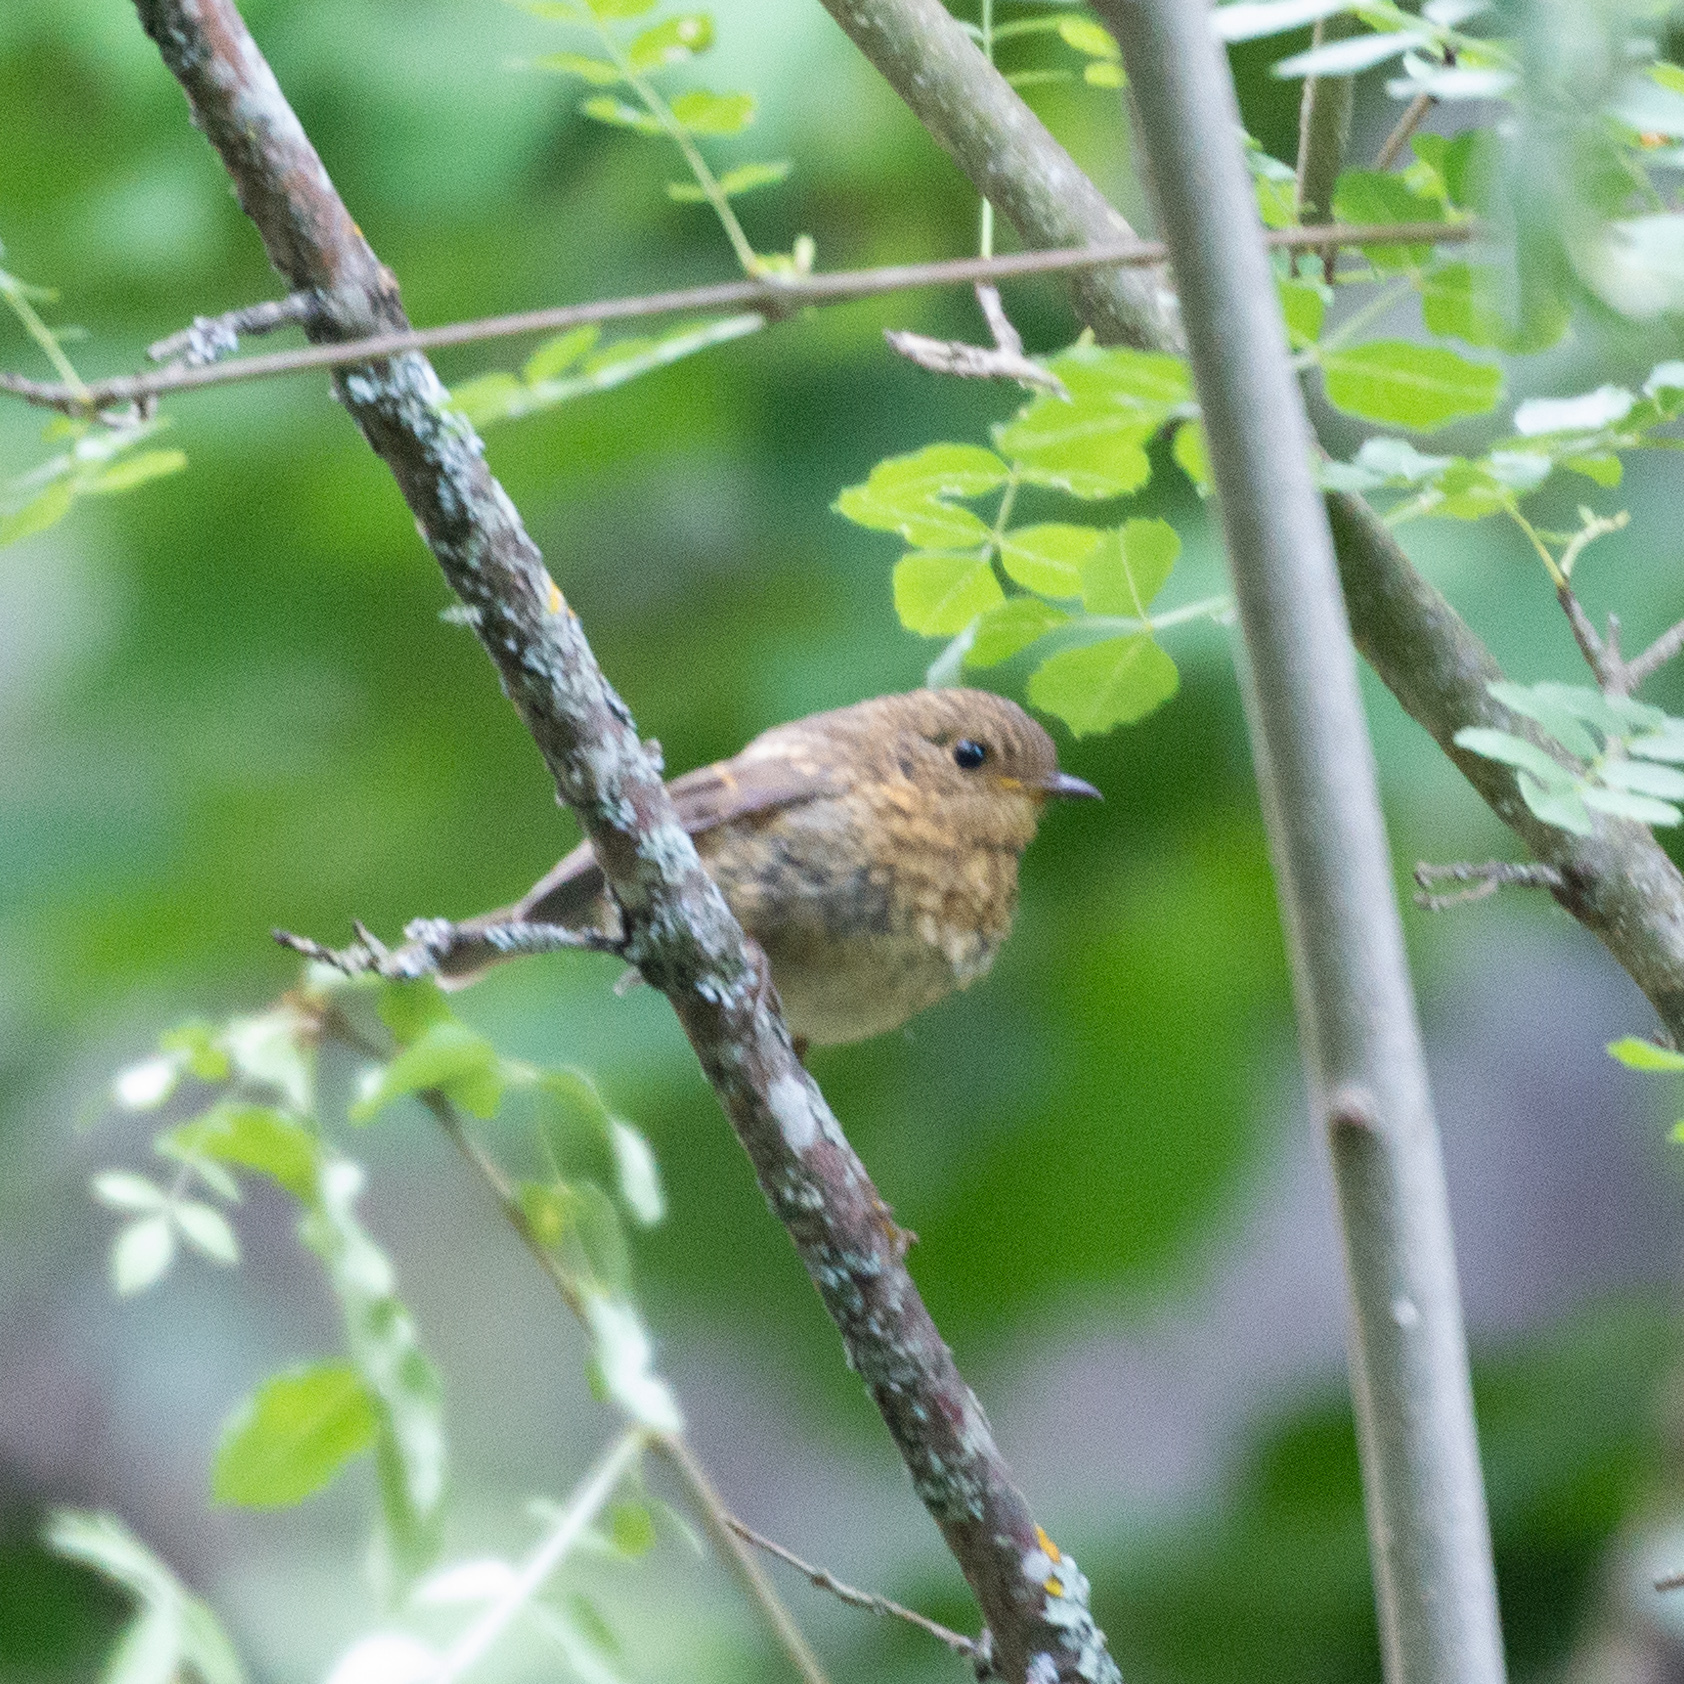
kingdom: Animalia
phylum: Chordata
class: Aves
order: Passeriformes
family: Muscicapidae
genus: Erithacus
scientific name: Erithacus rubecula
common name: European robin
